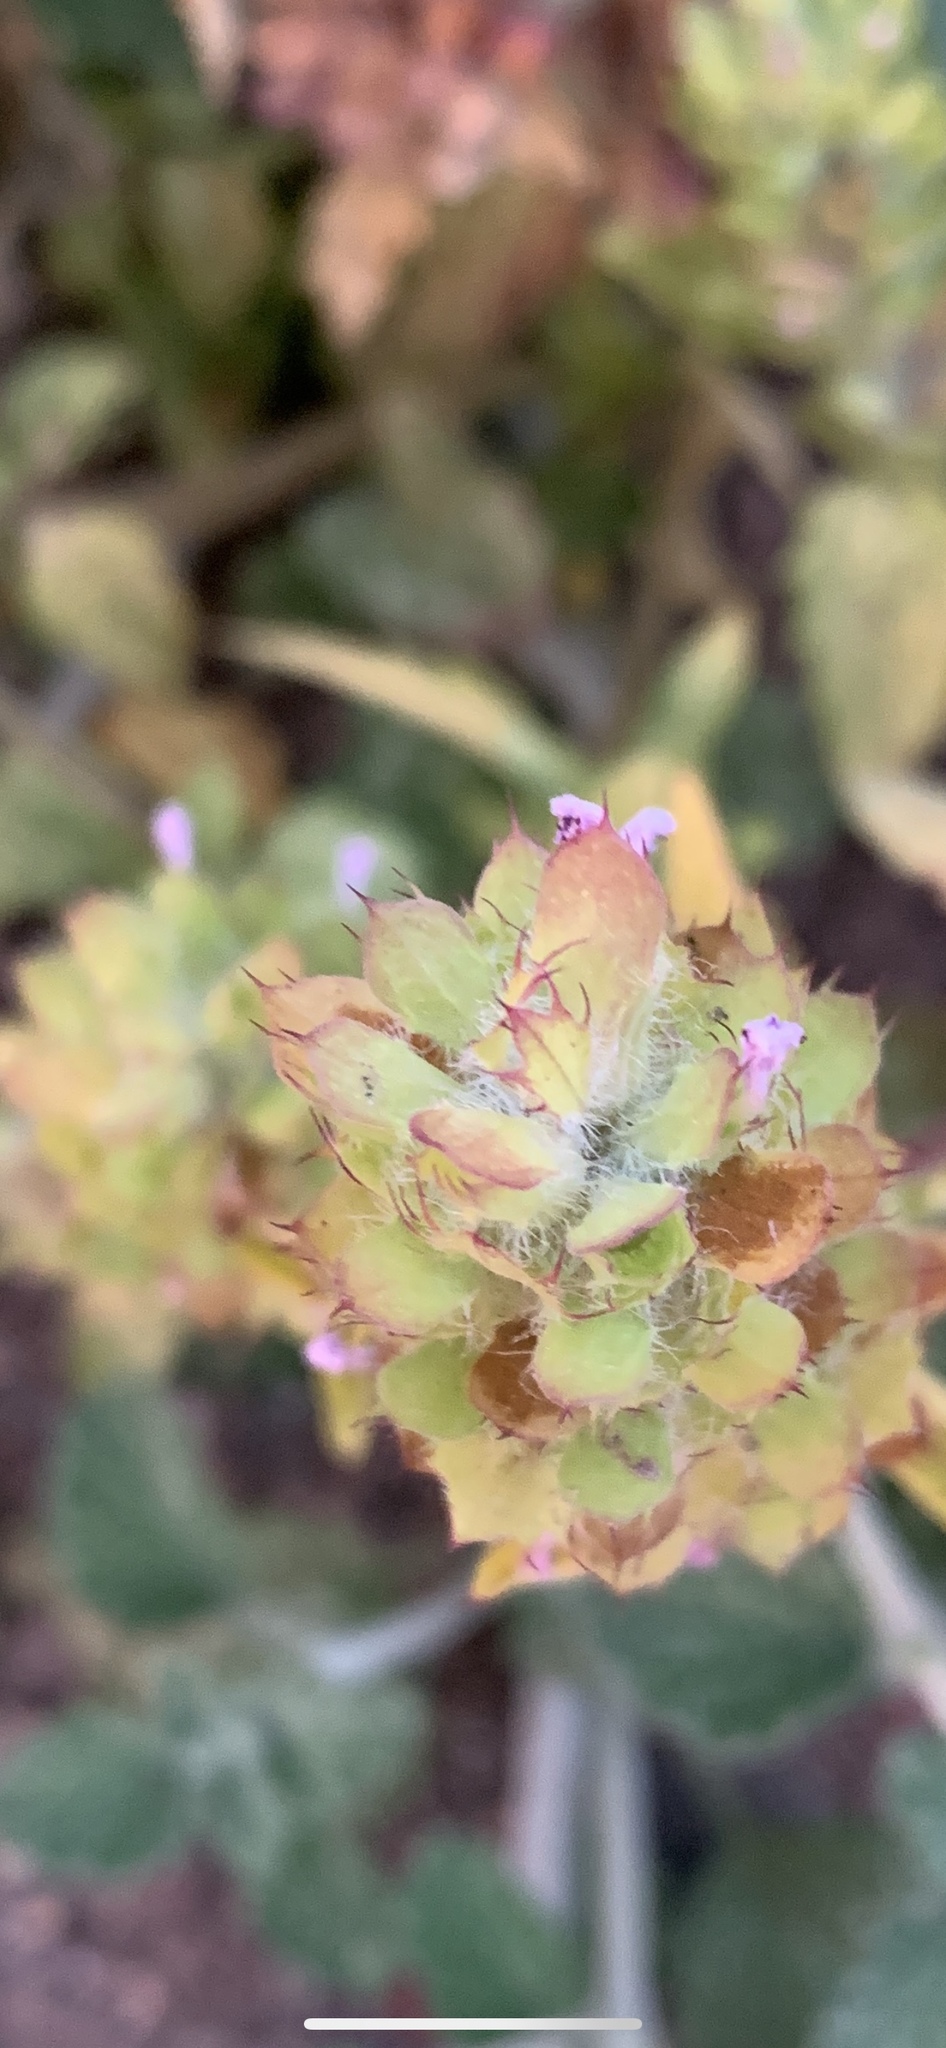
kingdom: Plantae
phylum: Tracheophyta
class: Magnoliopsida
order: Lamiales
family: Lamiaceae
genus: Prunella
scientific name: Prunella vulgaris
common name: Heal-all
